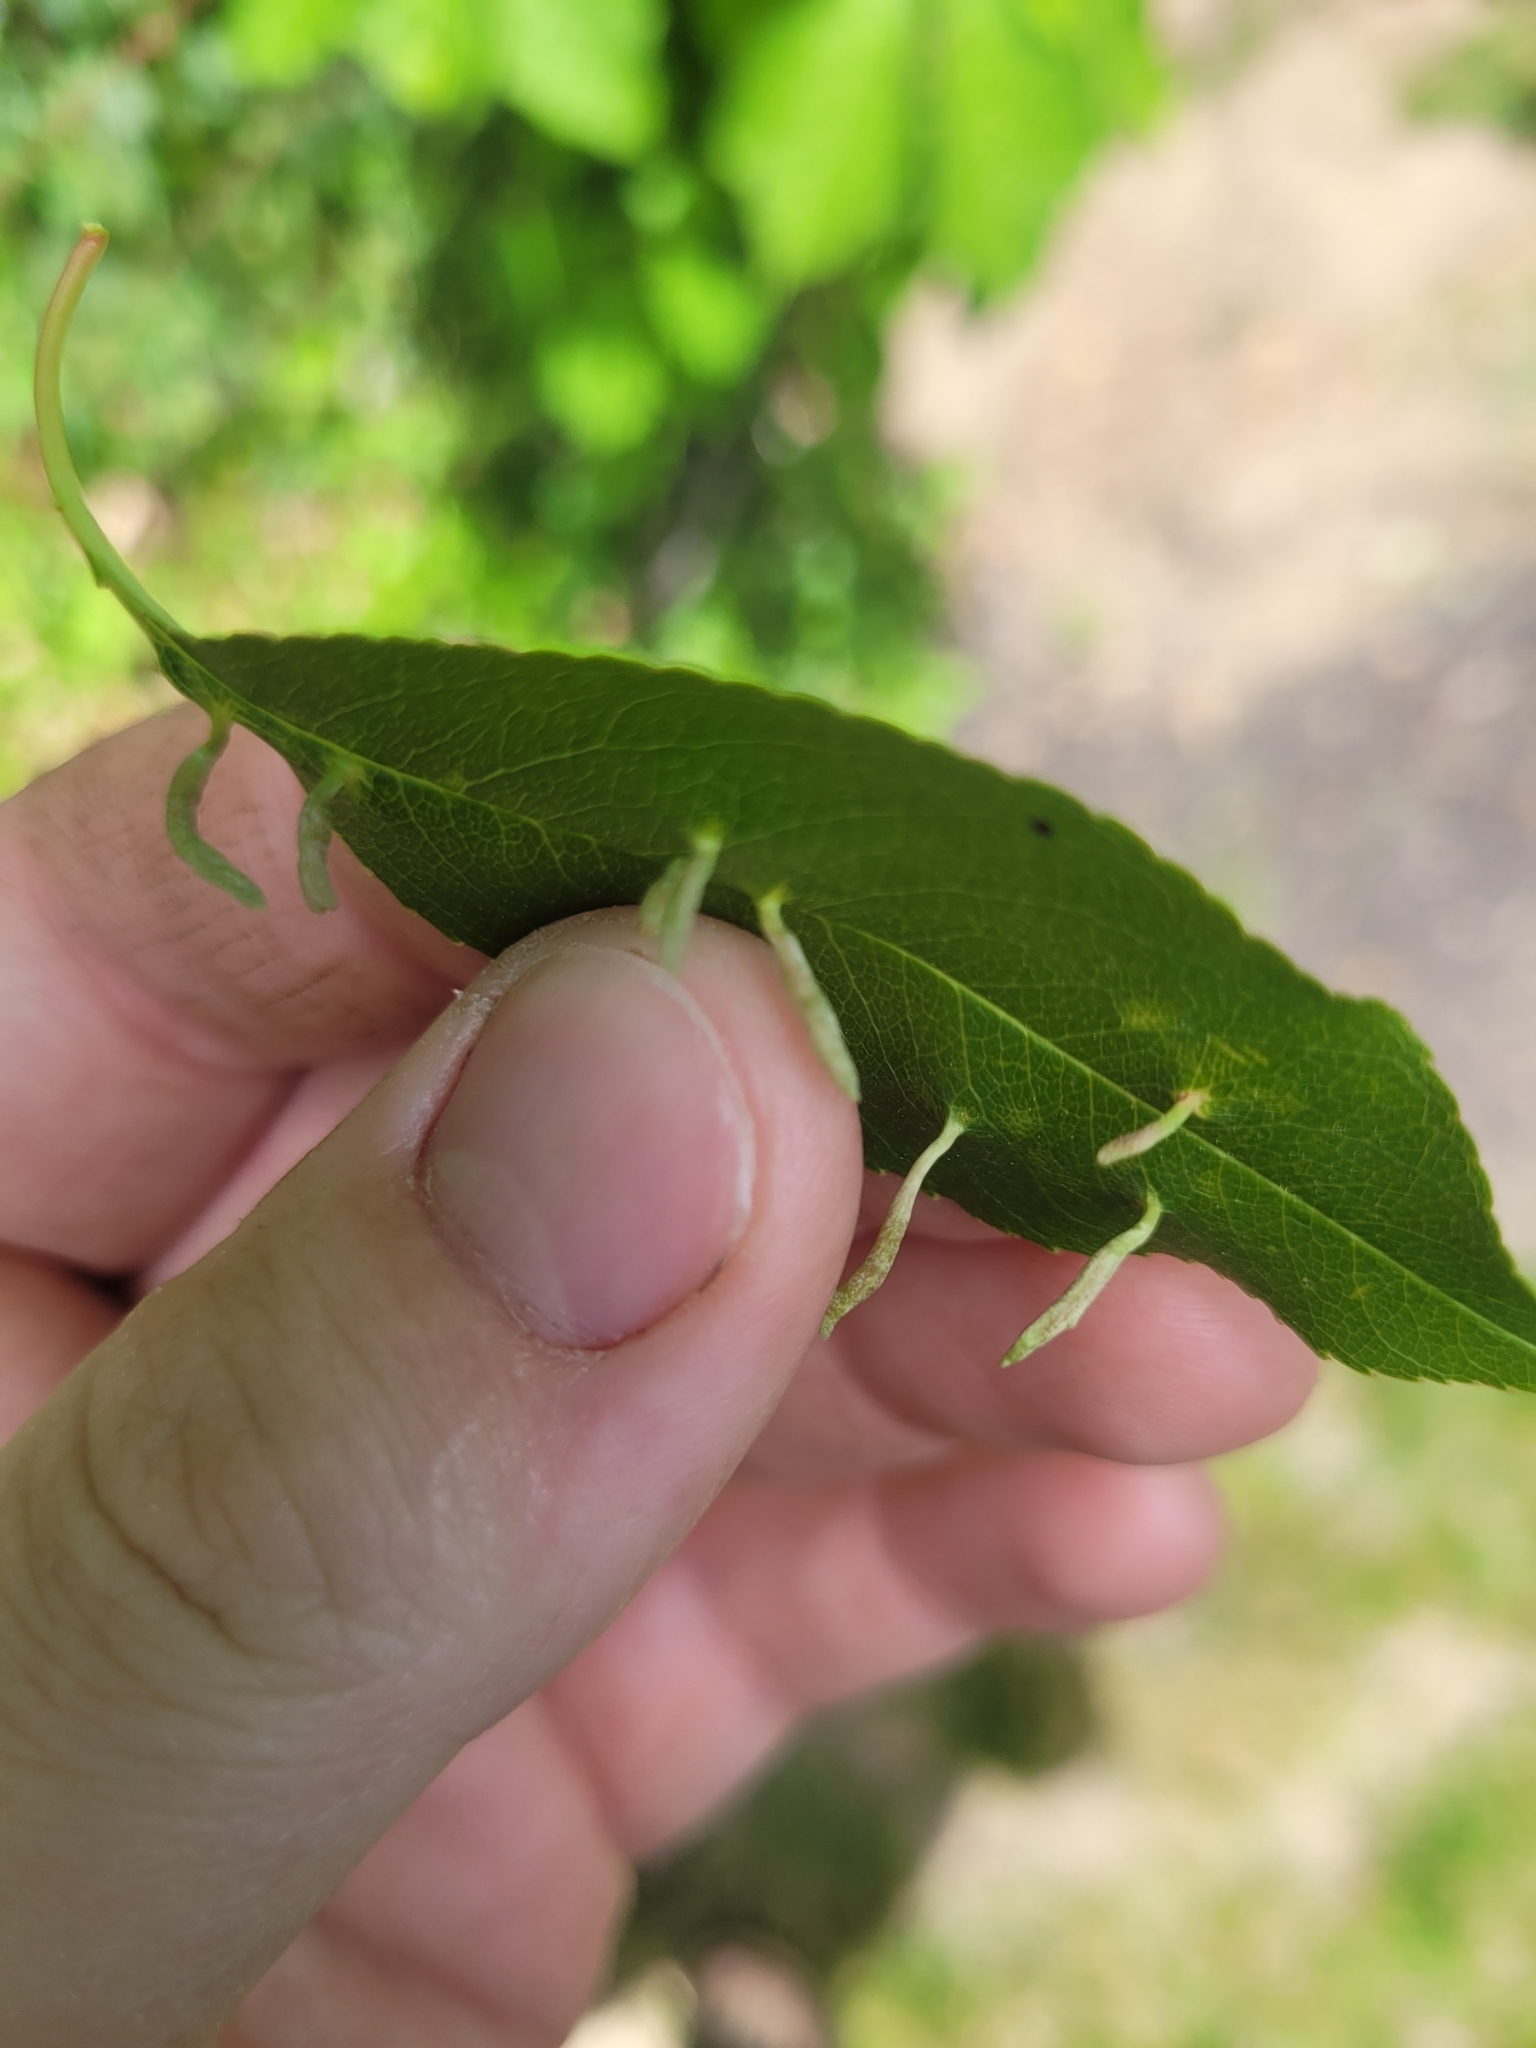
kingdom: Animalia
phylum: Arthropoda
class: Arachnida
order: Trombidiformes
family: Eriophyidae
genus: Eriophyes
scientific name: Eriophyes
